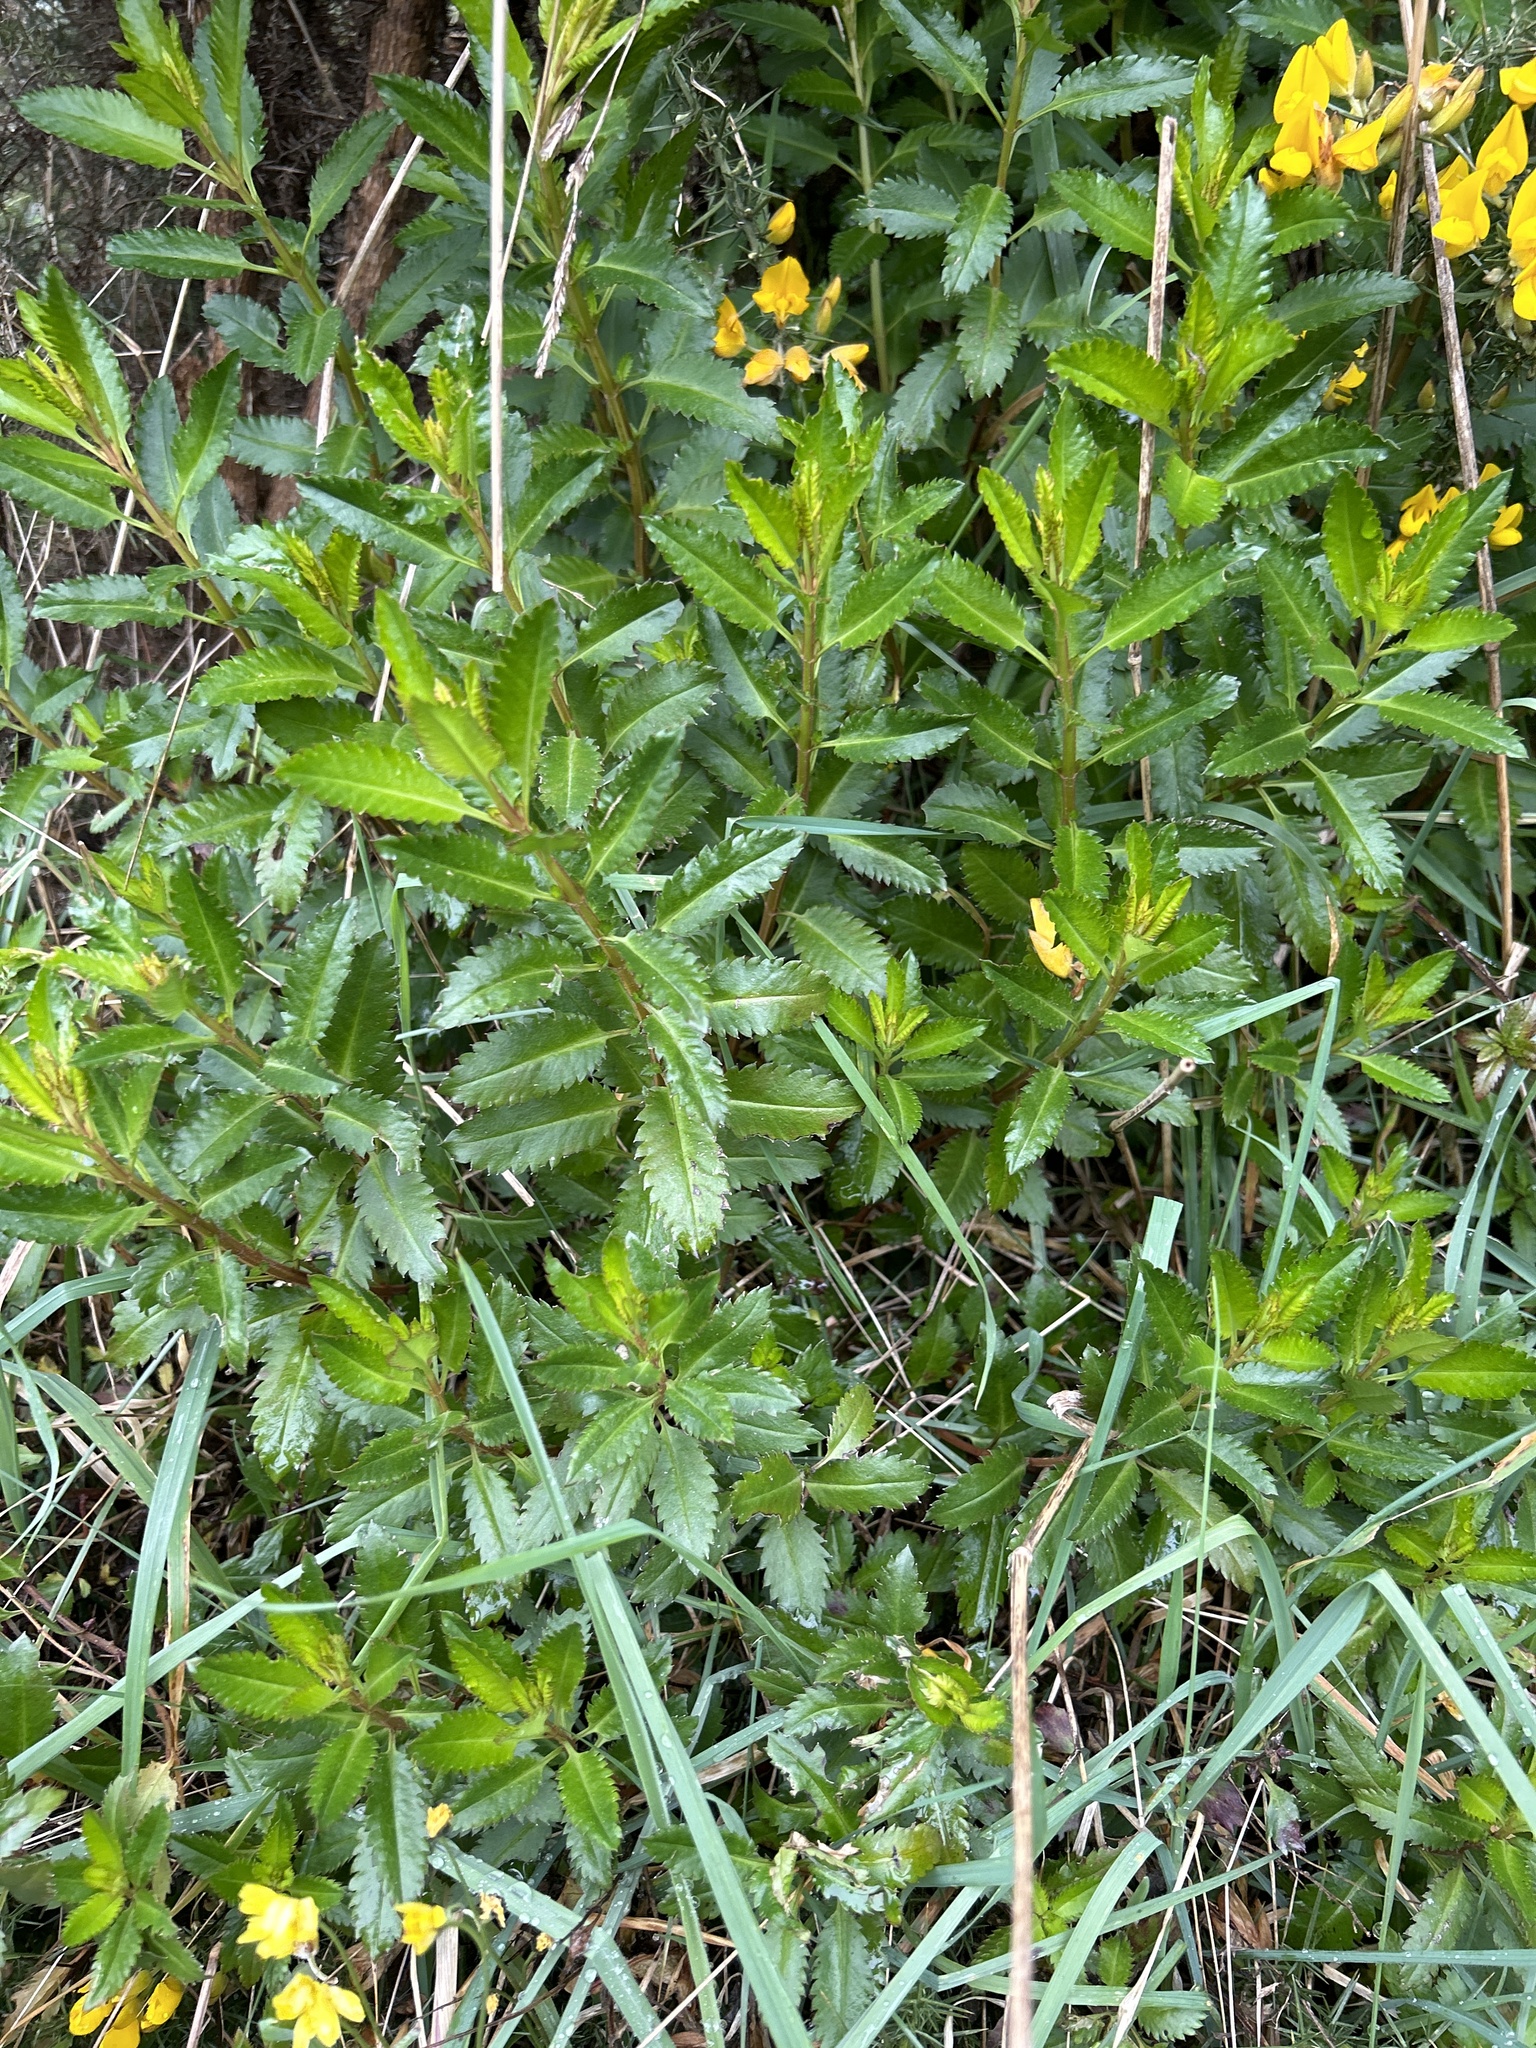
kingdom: Plantae
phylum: Tracheophyta
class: Magnoliopsida
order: Saxifragales
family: Haloragaceae
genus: Haloragis
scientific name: Haloragis erecta
